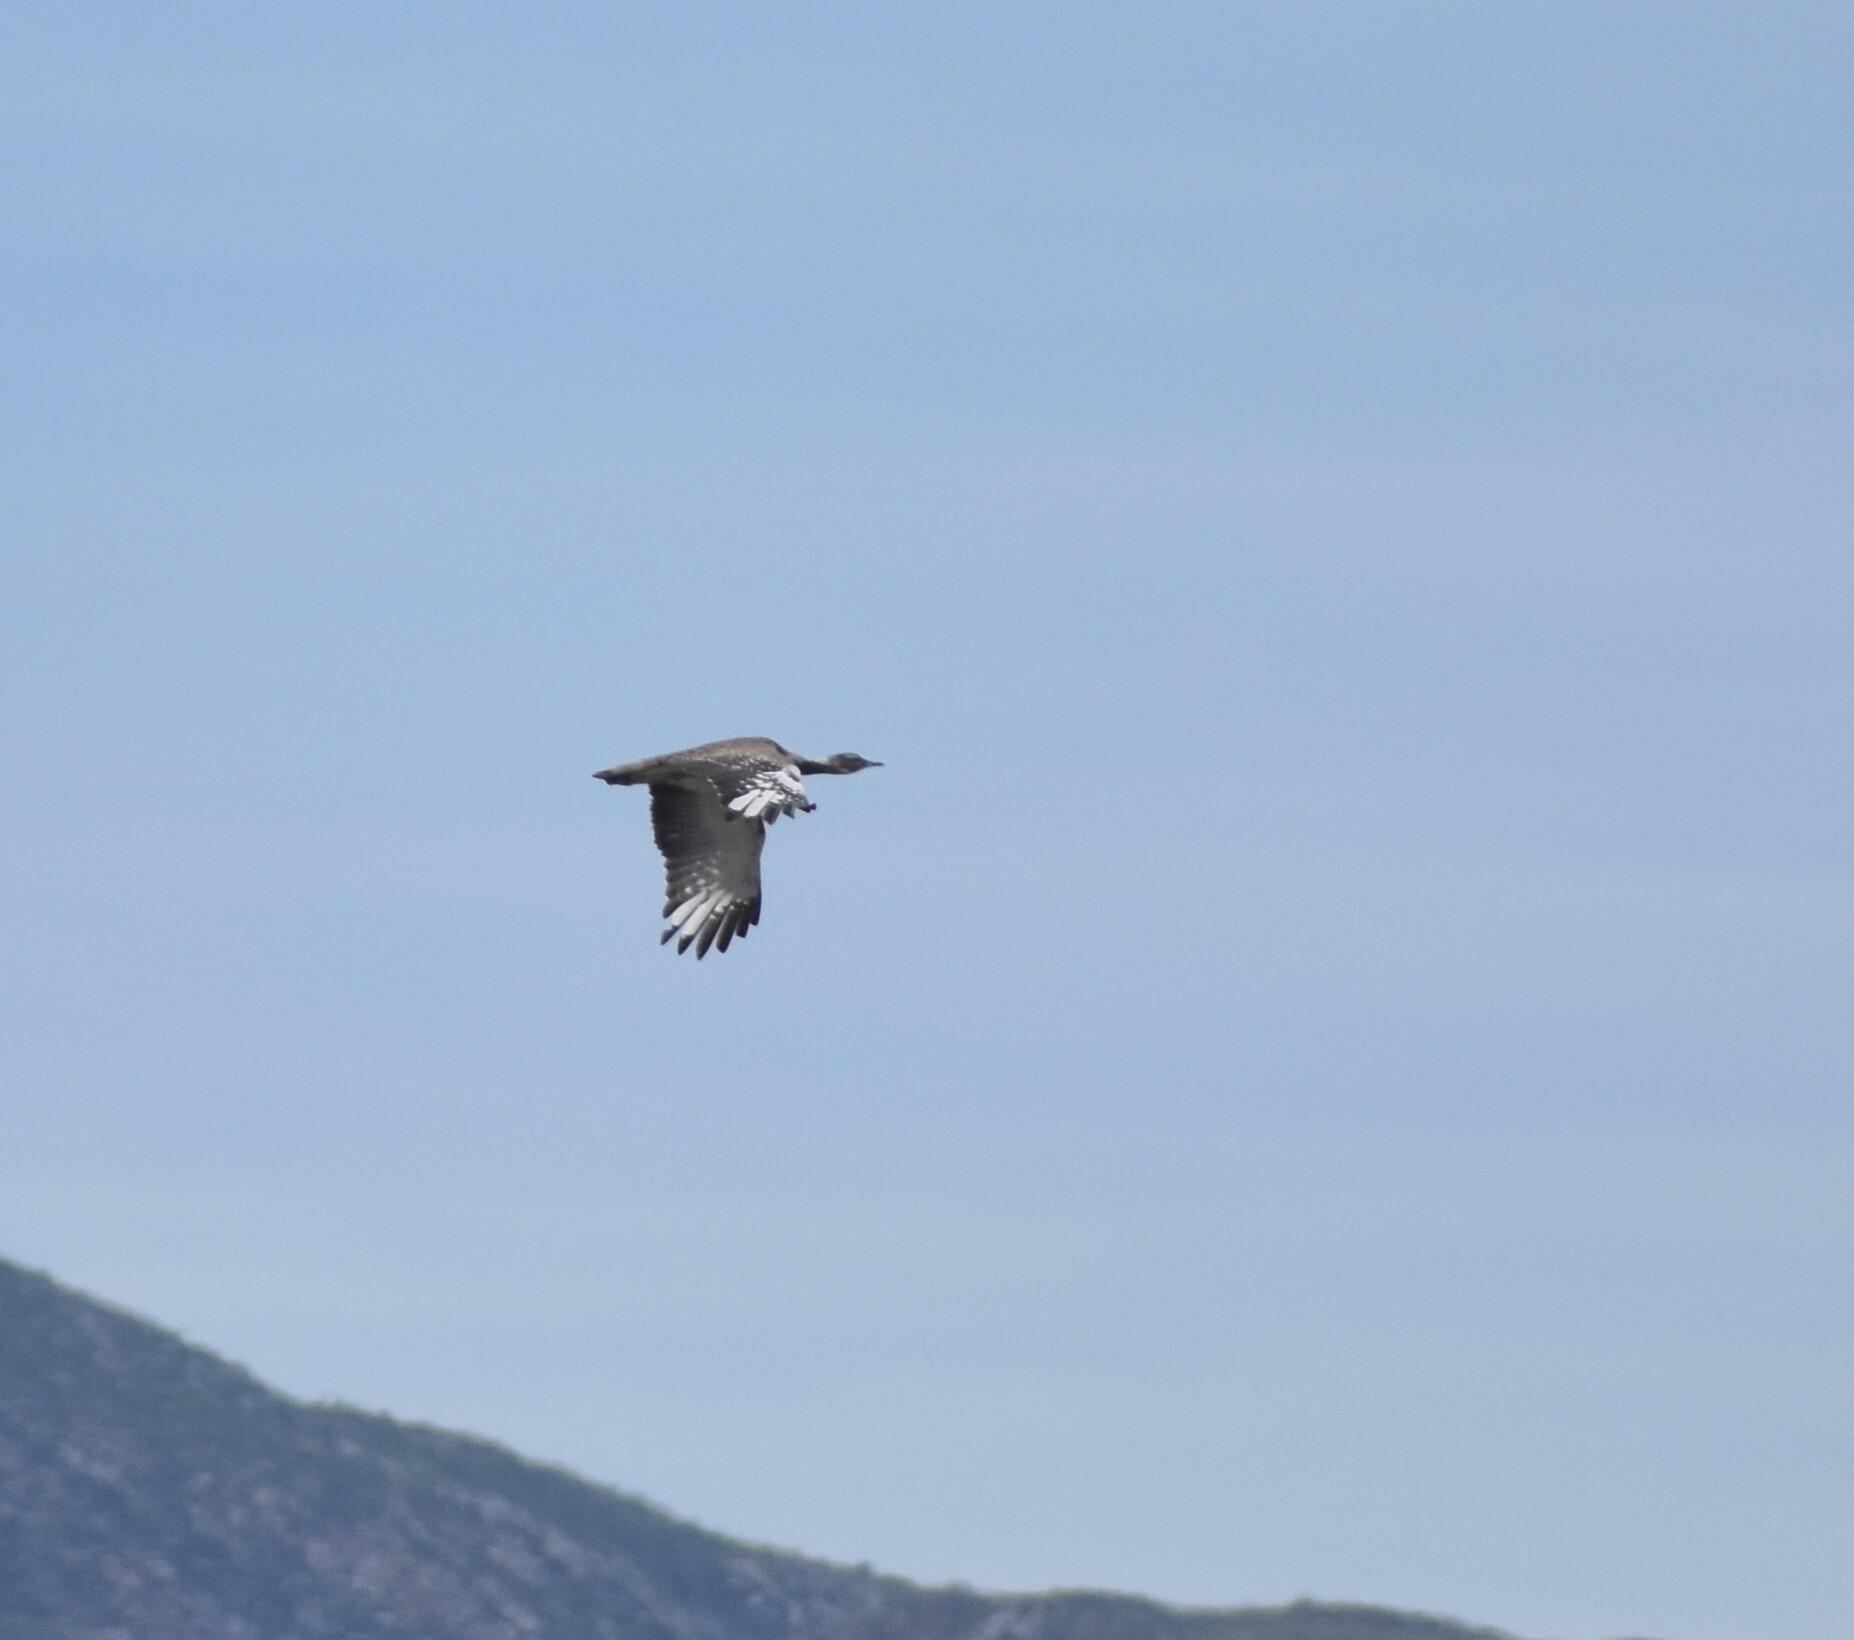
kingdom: Animalia
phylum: Chordata
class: Aves
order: Otidiformes
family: Otididae
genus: Neotis
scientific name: Neotis ludwigii
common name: Ludwig's bustard
